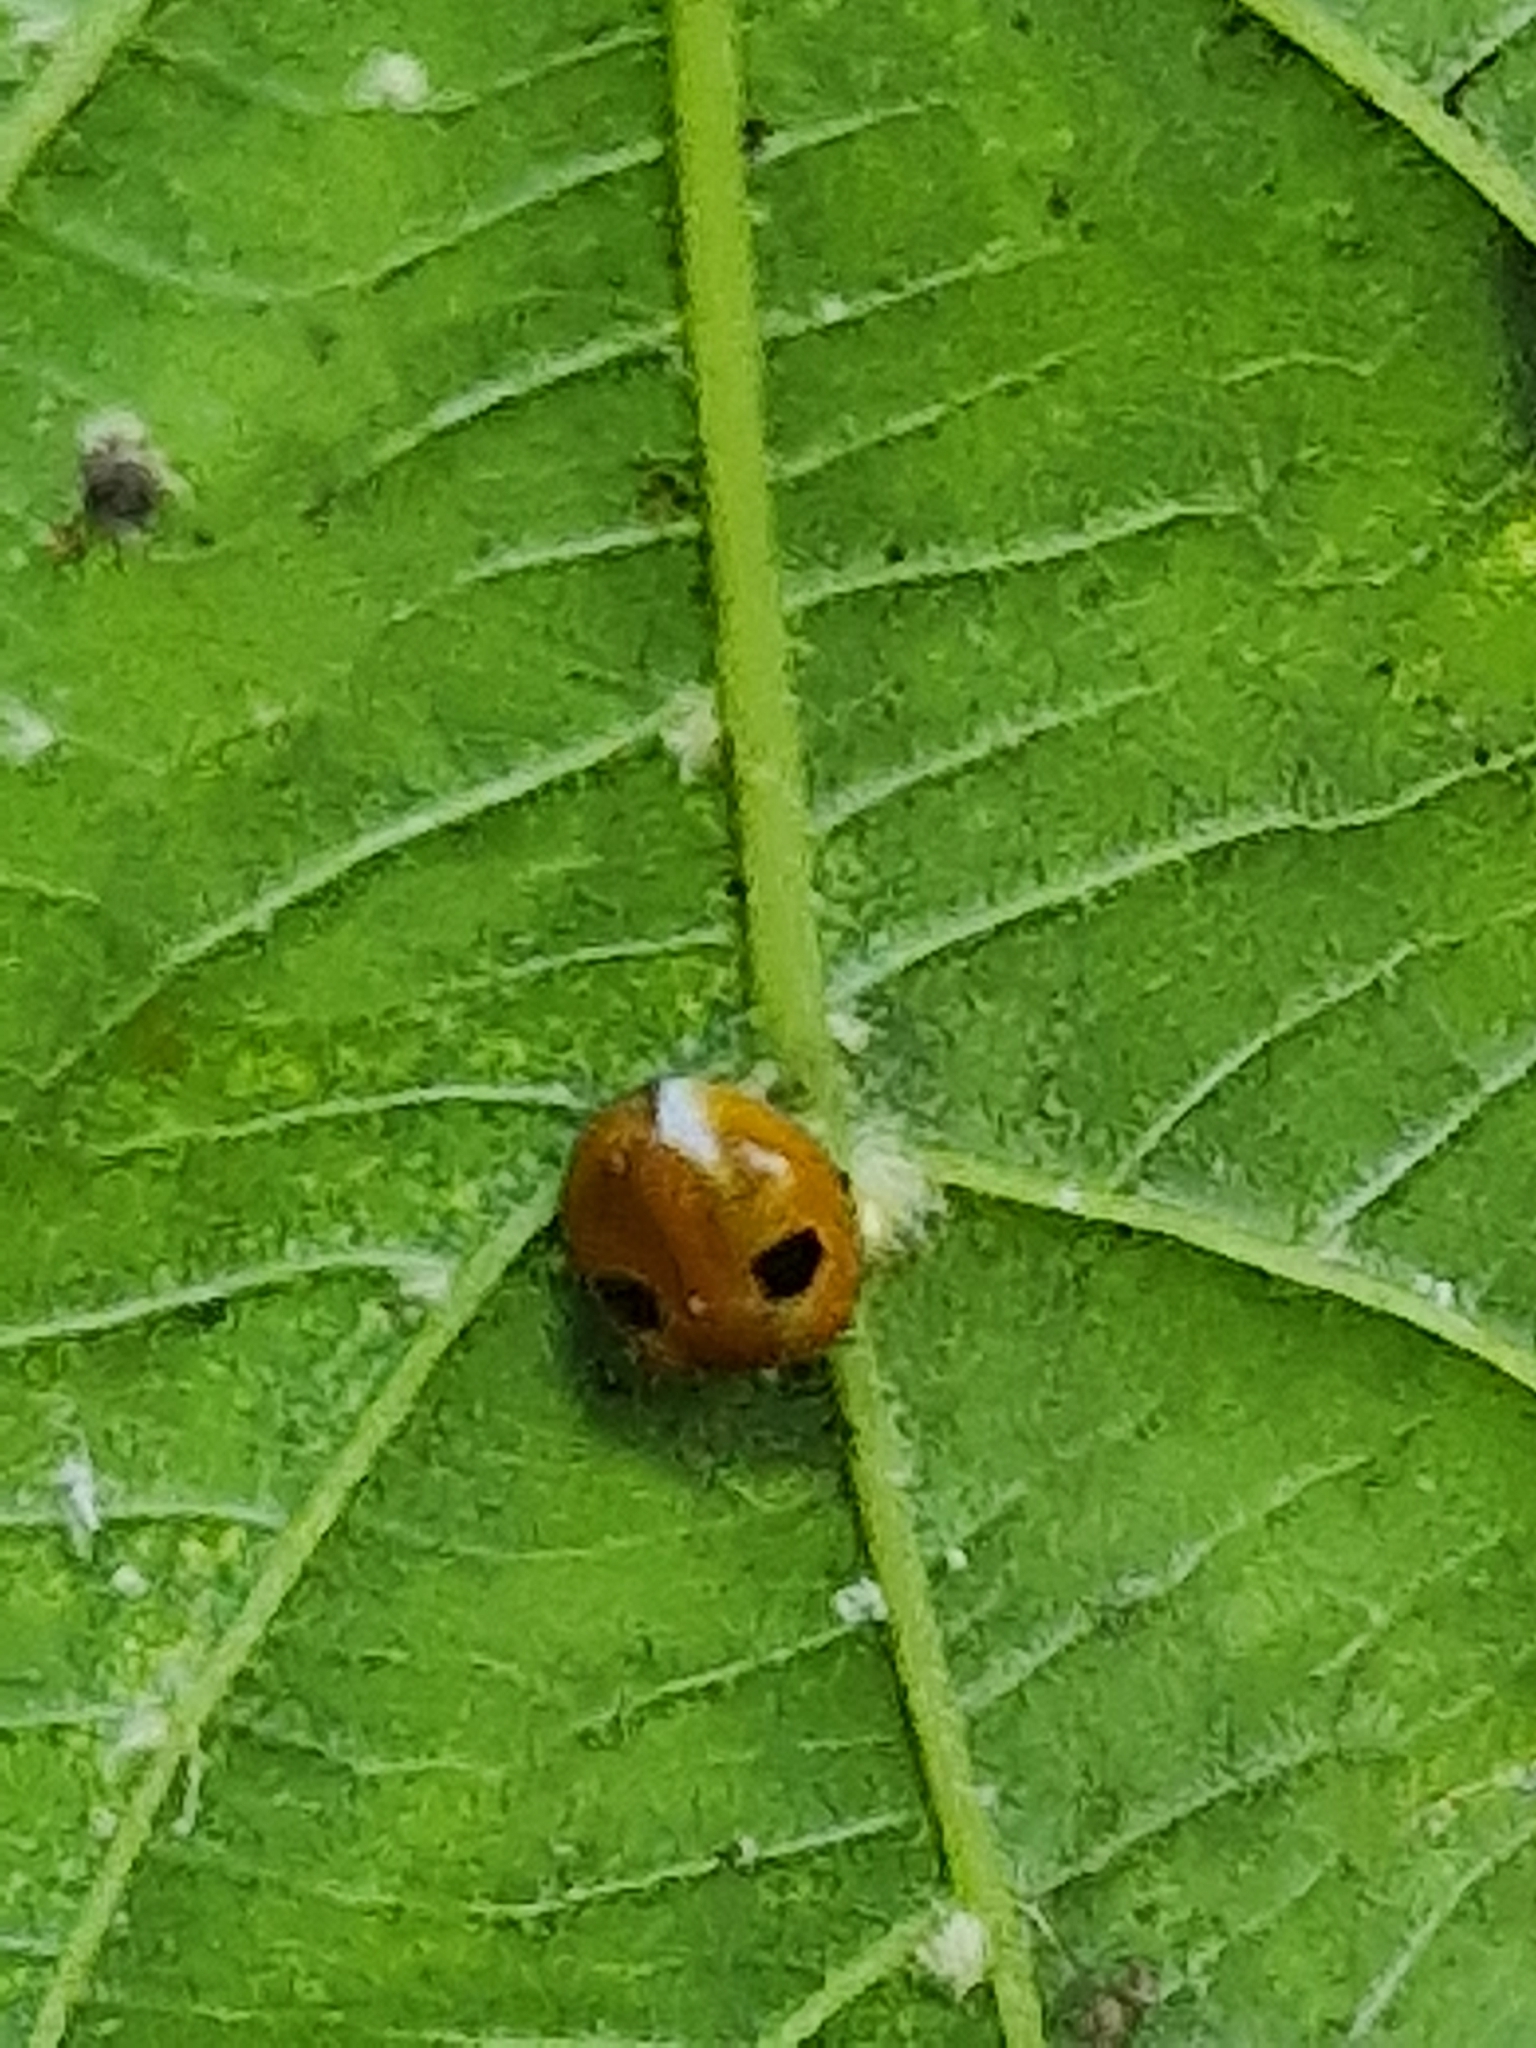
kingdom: Animalia
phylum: Arthropoda
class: Insecta
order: Coleoptera
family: Coccinellidae
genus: Adalia
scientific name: Adalia bipunctata
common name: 2-spot ladybird
